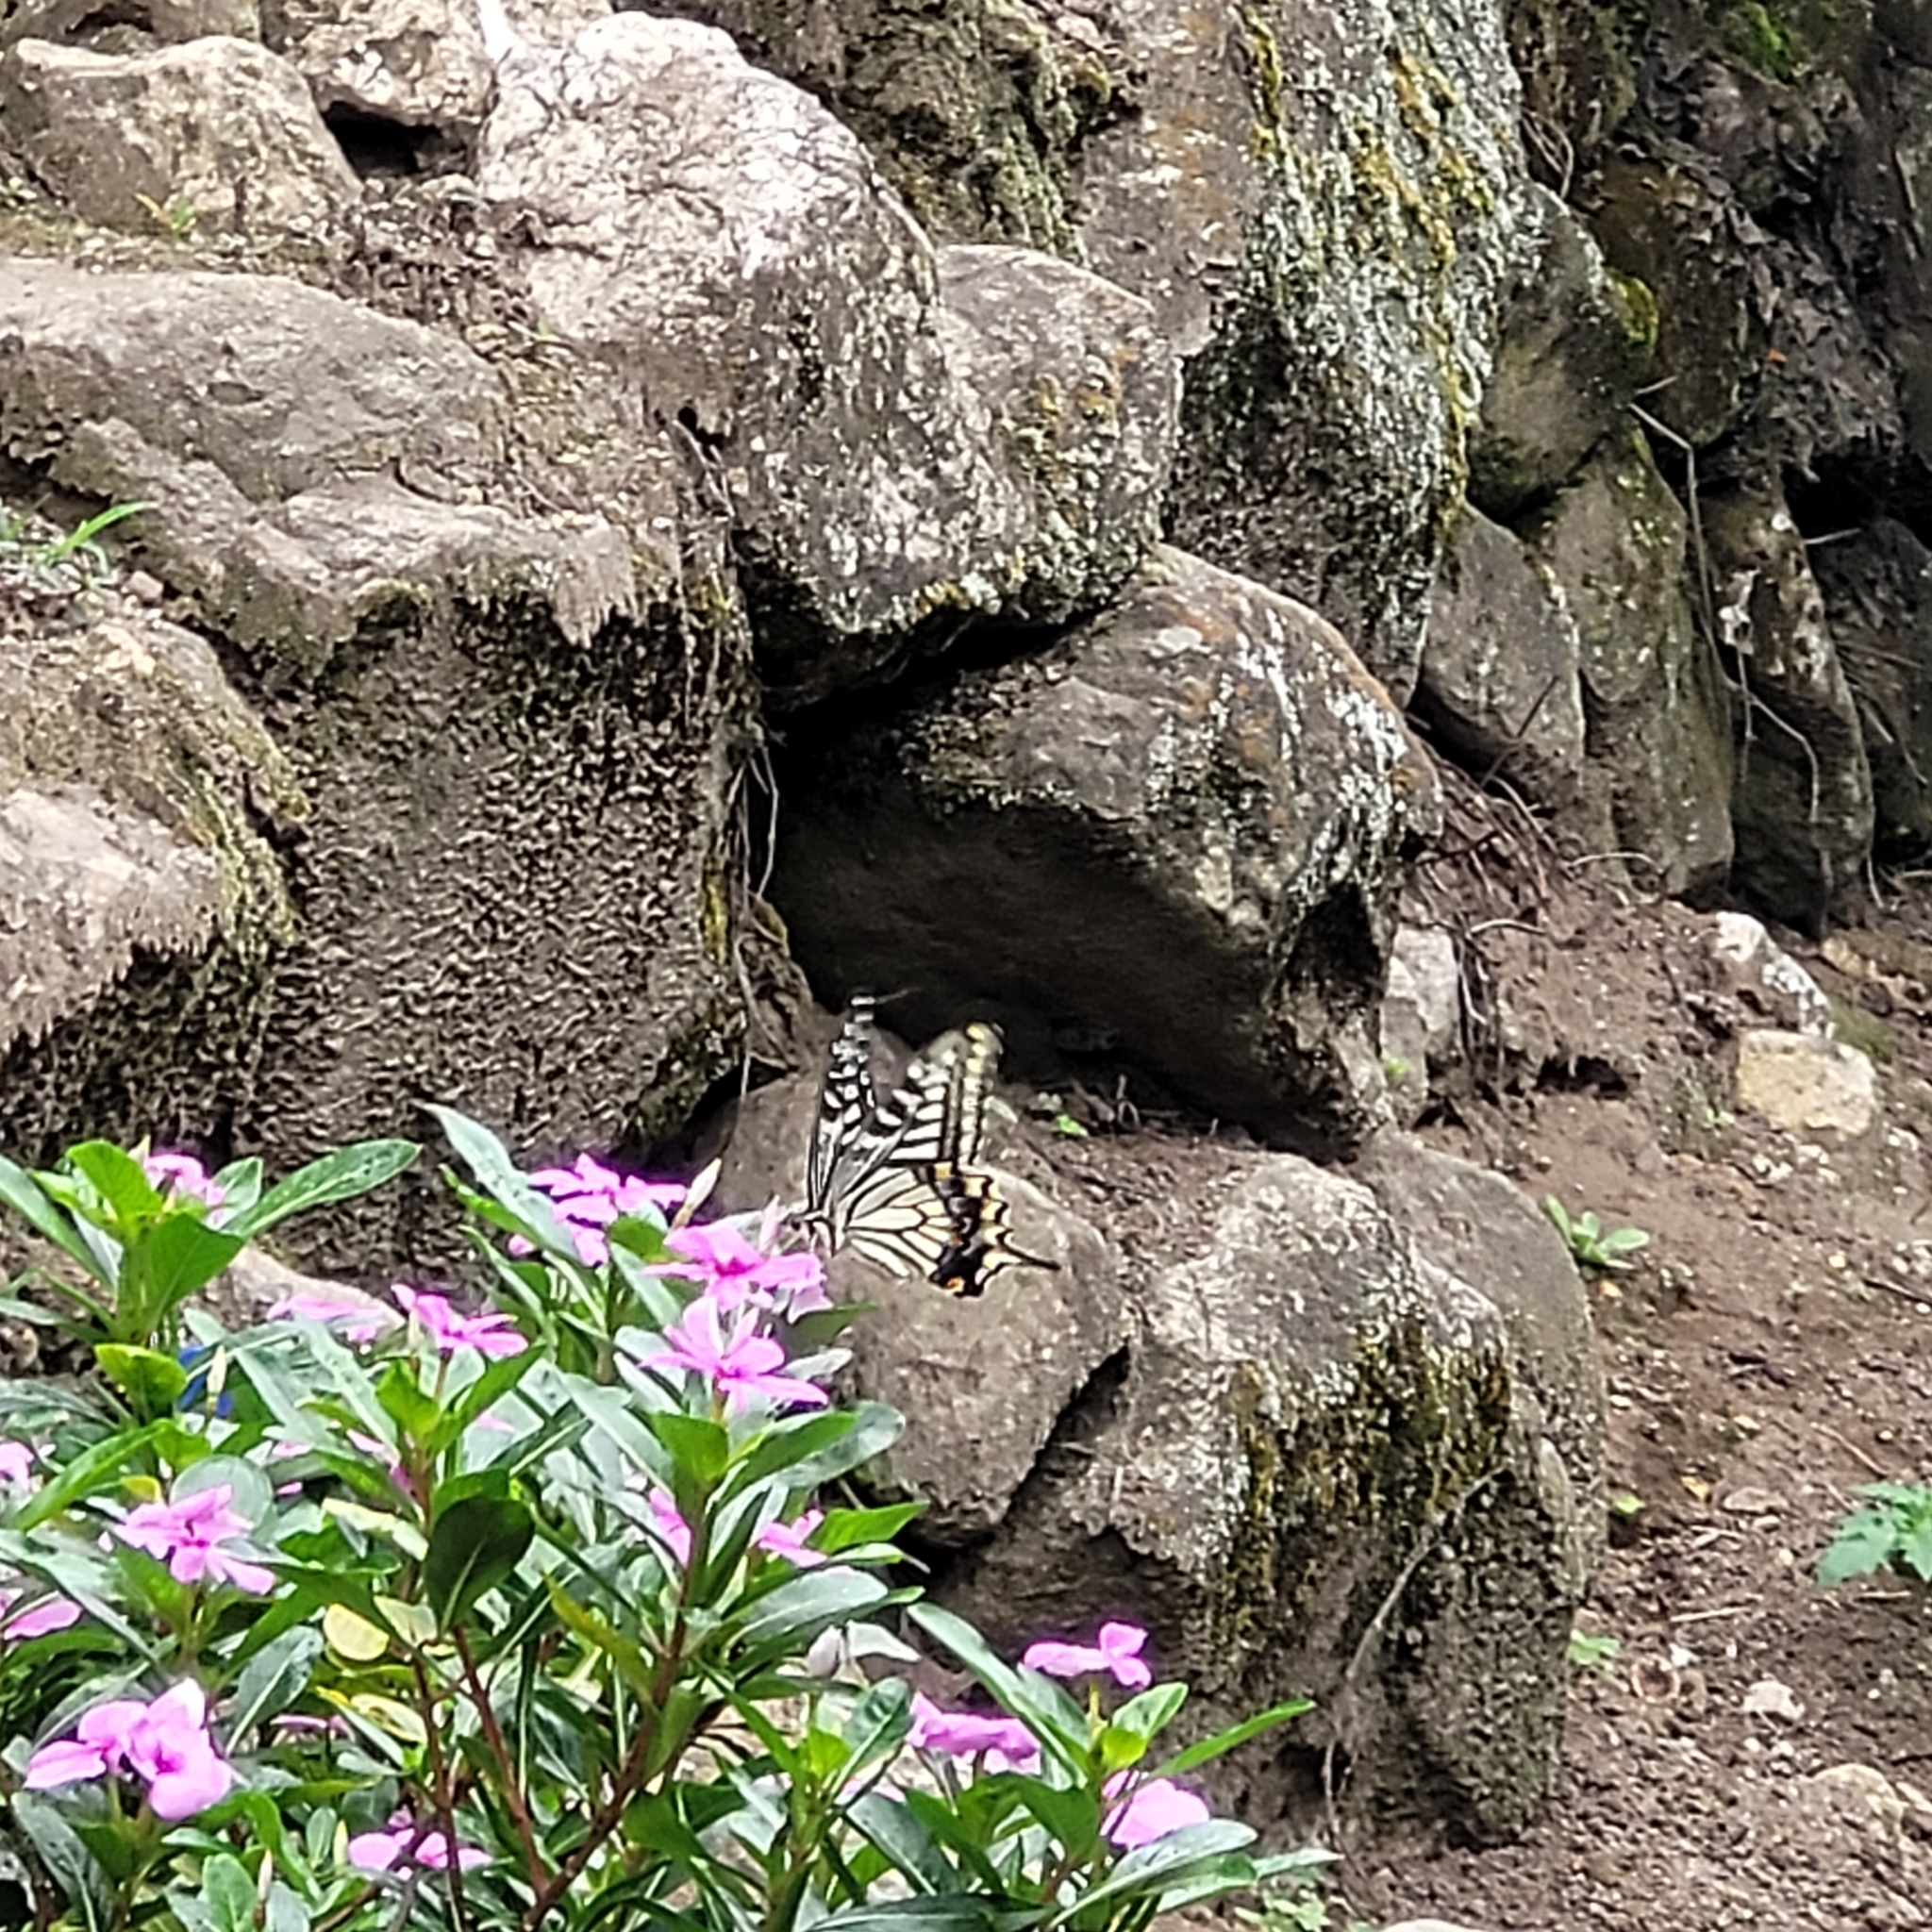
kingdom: Animalia
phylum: Arthropoda
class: Insecta
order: Lepidoptera
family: Papilionidae
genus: Papilio
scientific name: Papilio xuthus
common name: Asian swallowtail
